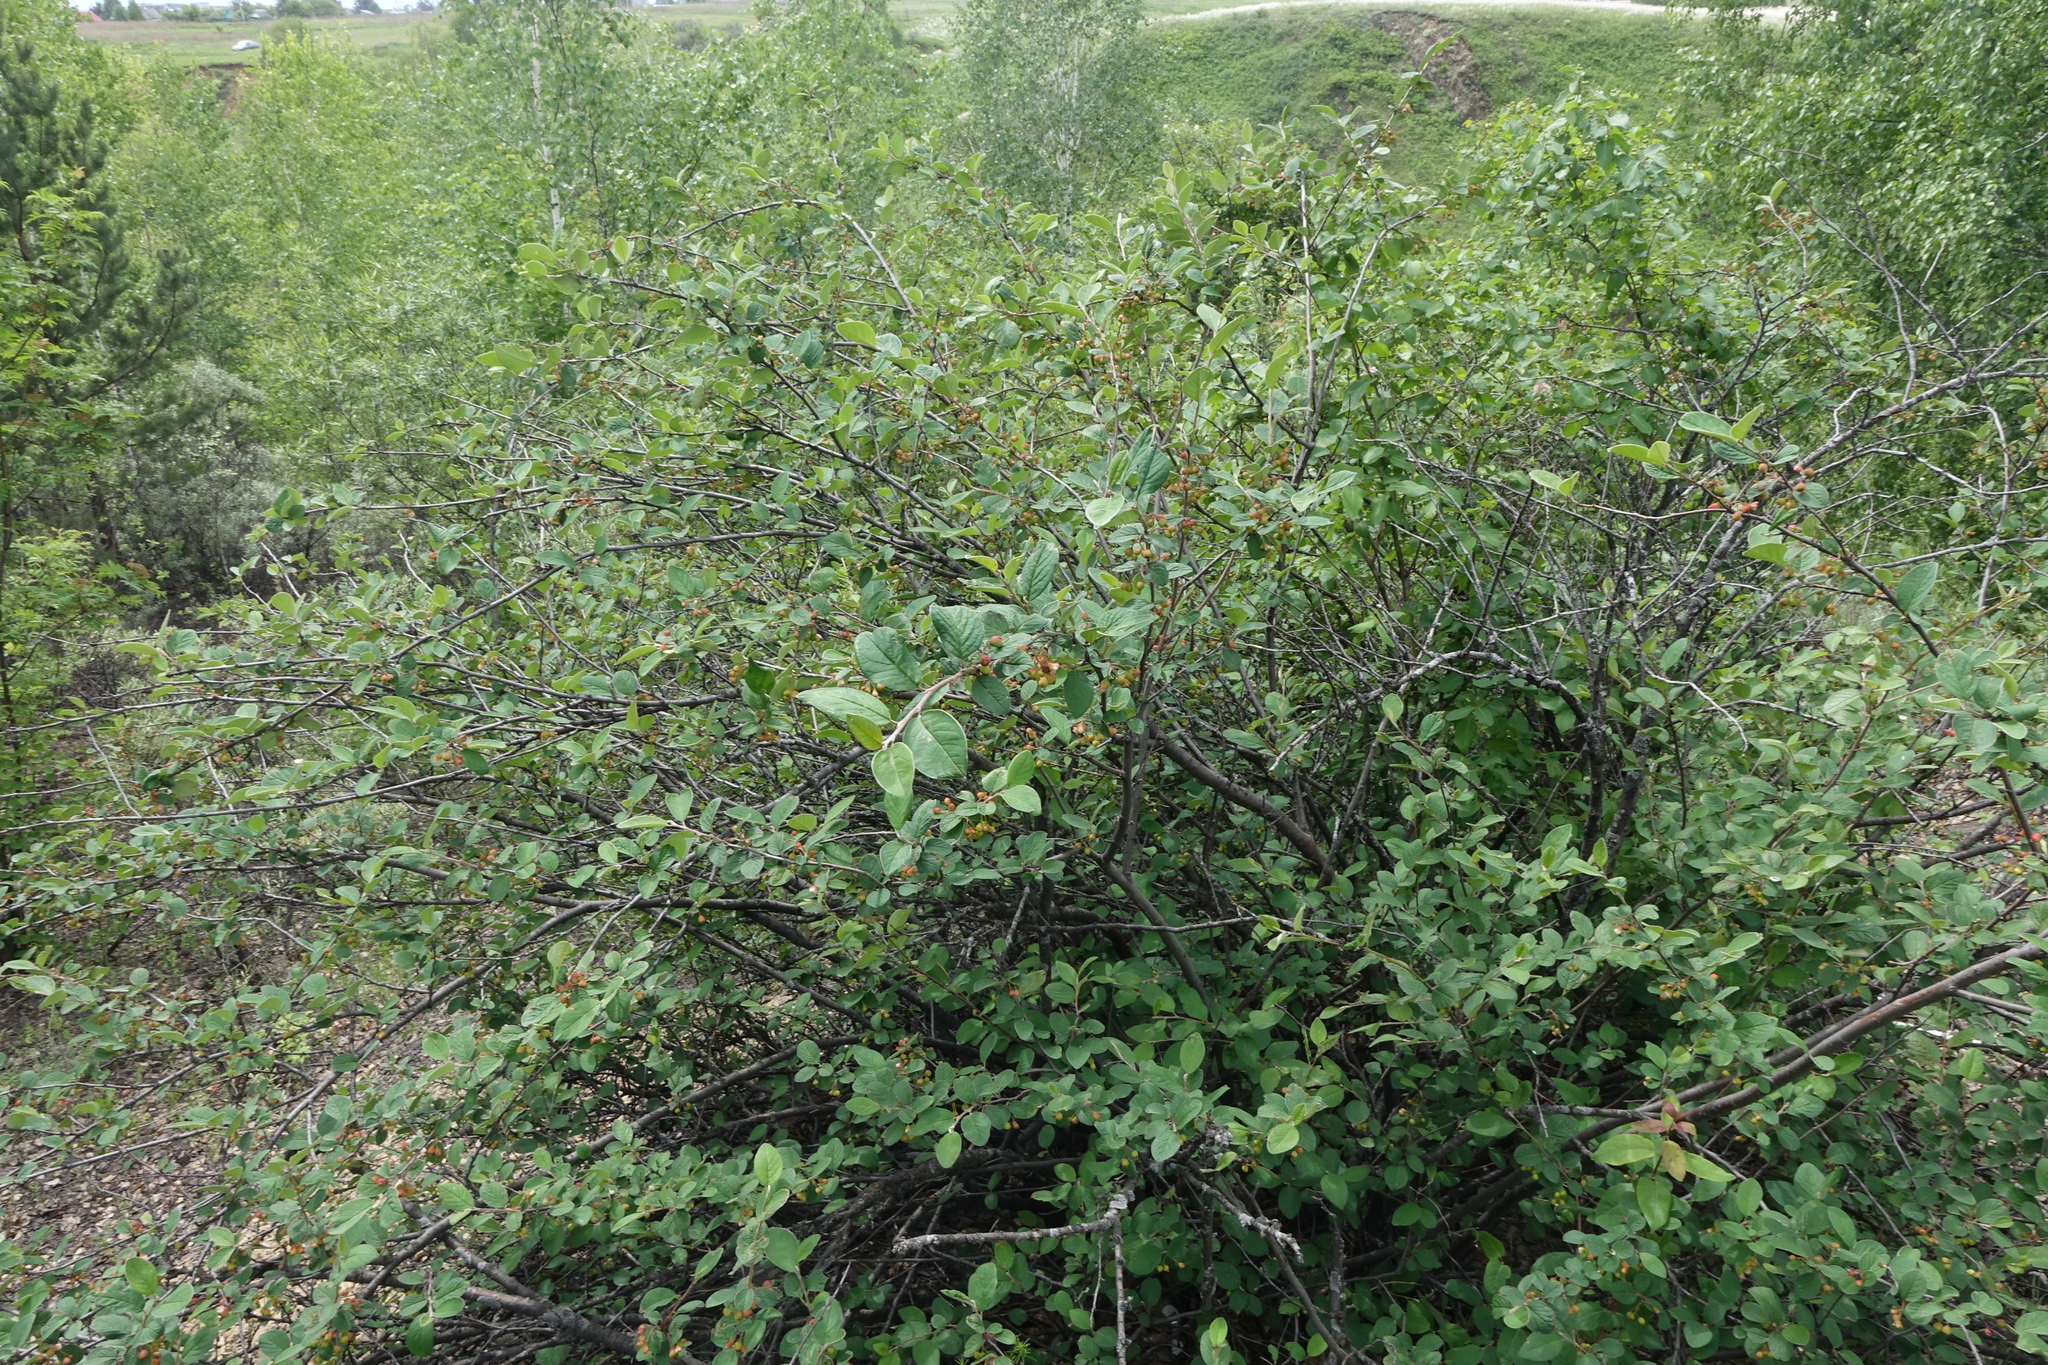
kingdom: Plantae
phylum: Tracheophyta
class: Magnoliopsida
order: Rosales
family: Rosaceae
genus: Cotoneaster
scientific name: Cotoneaster melanocarpus
